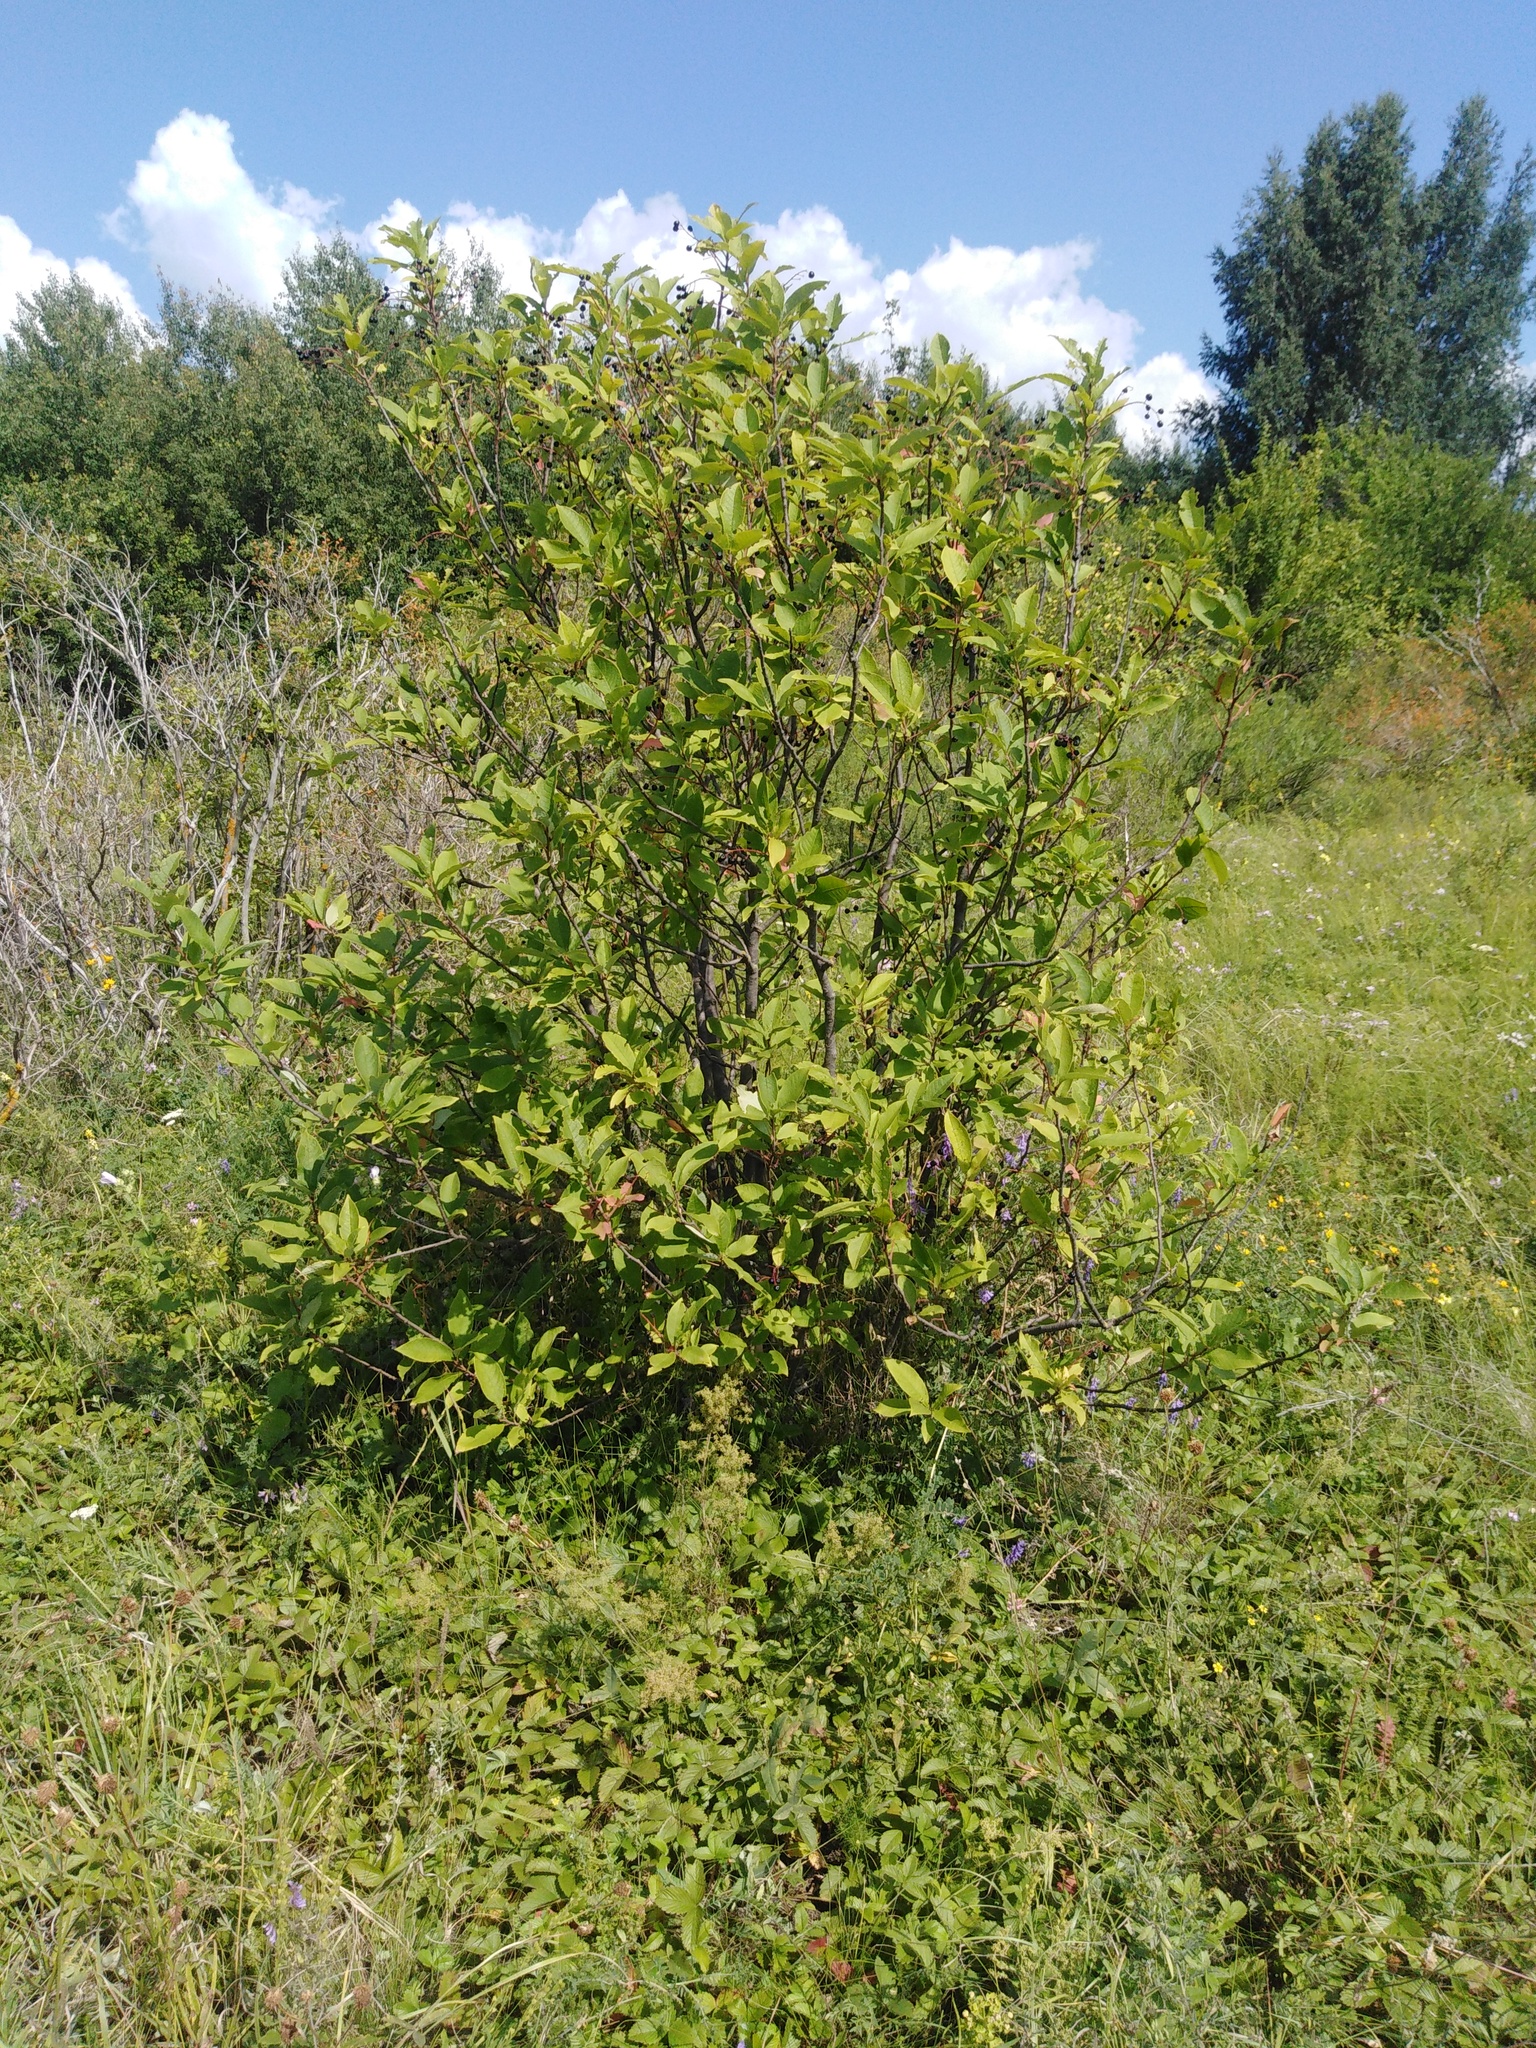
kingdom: Plantae
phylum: Tracheophyta
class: Magnoliopsida
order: Rosales
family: Rosaceae
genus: Prunus
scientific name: Prunus padus
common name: Bird cherry
